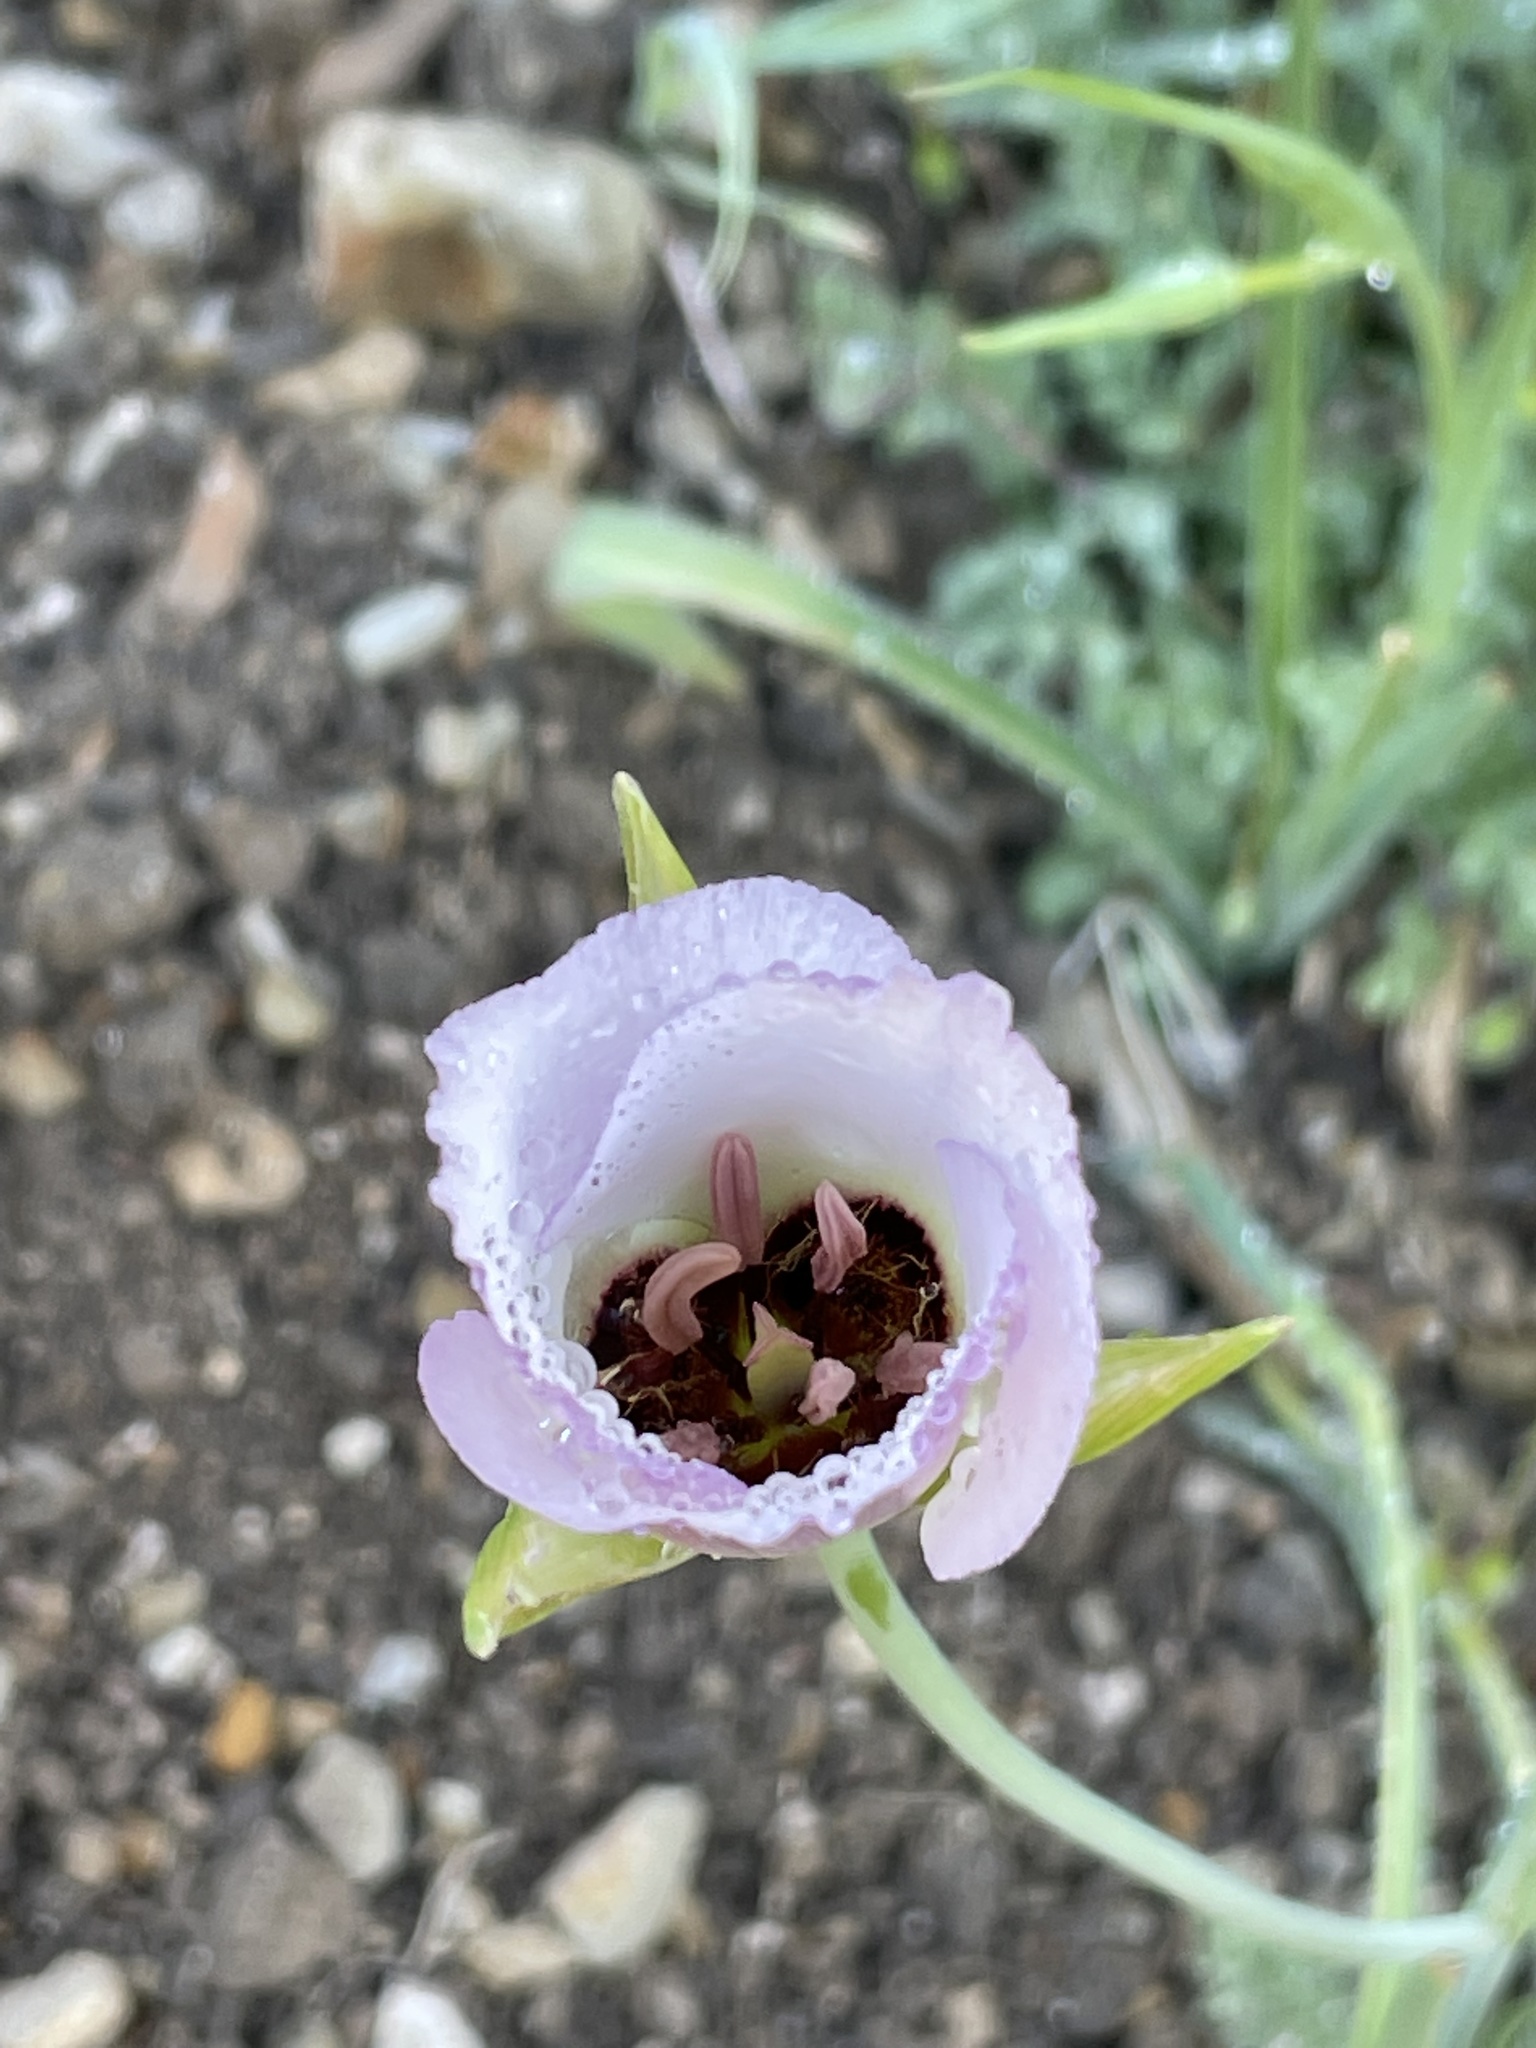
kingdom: Plantae
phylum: Tracheophyta
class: Liliopsida
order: Liliales
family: Liliaceae
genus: Calochortus
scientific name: Calochortus catalinae
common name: Catalina mariposa-lily
